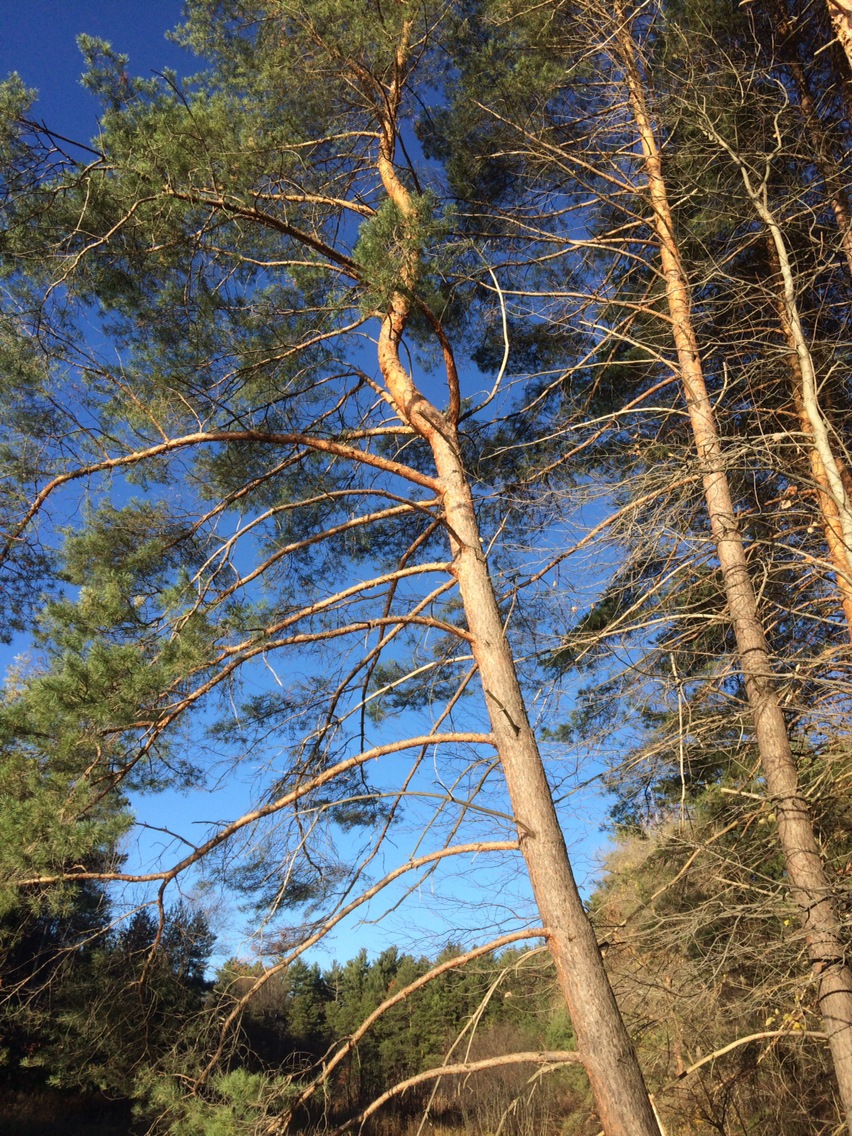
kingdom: Plantae
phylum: Tracheophyta
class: Pinopsida
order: Pinales
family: Pinaceae
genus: Pinus
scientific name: Pinus sylvestris
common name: Scots pine
